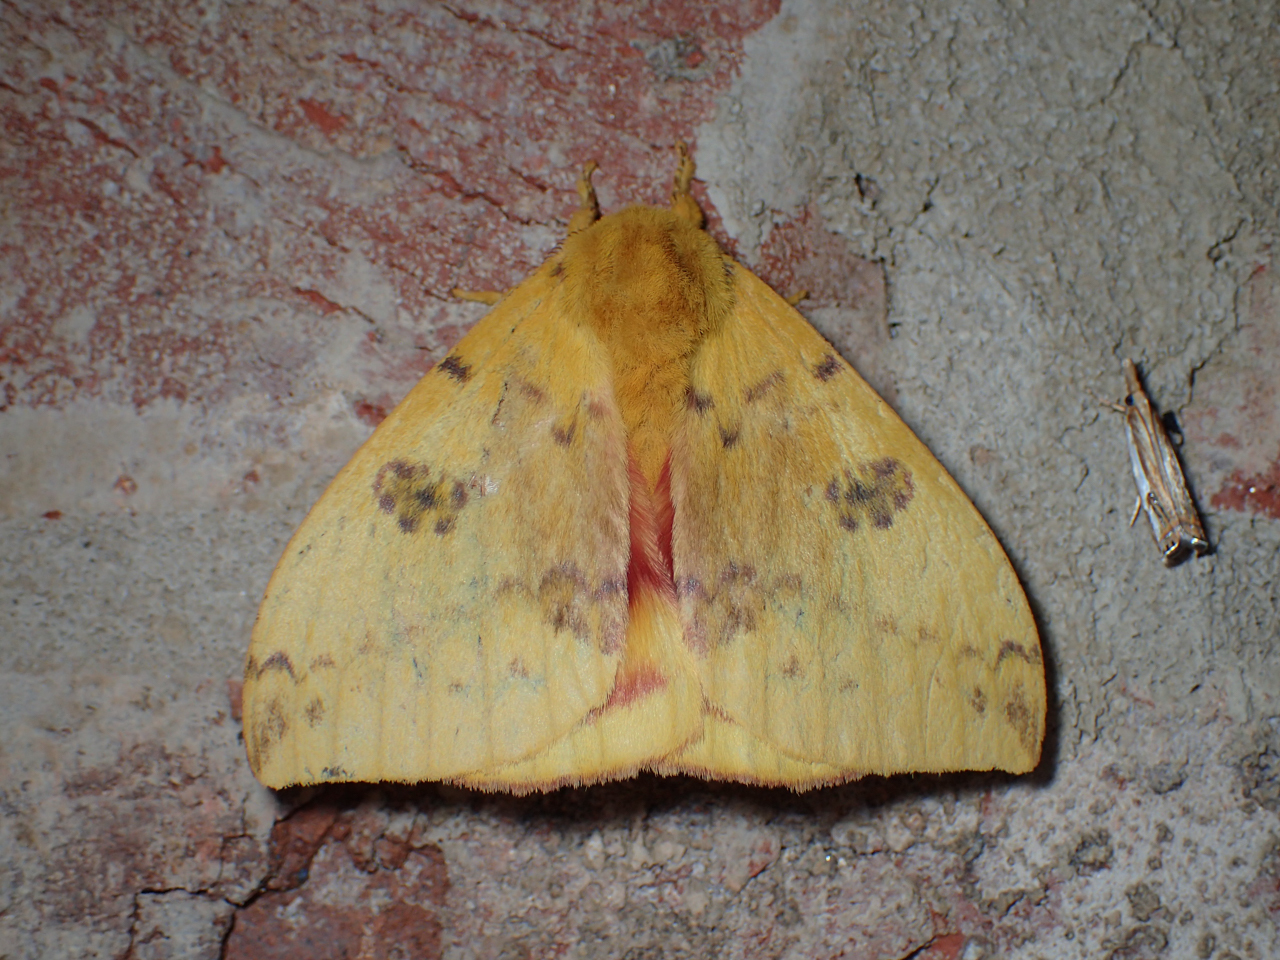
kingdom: Animalia
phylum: Arthropoda
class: Insecta
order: Lepidoptera
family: Saturniidae
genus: Automeris
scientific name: Automeris io
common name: Io moth
